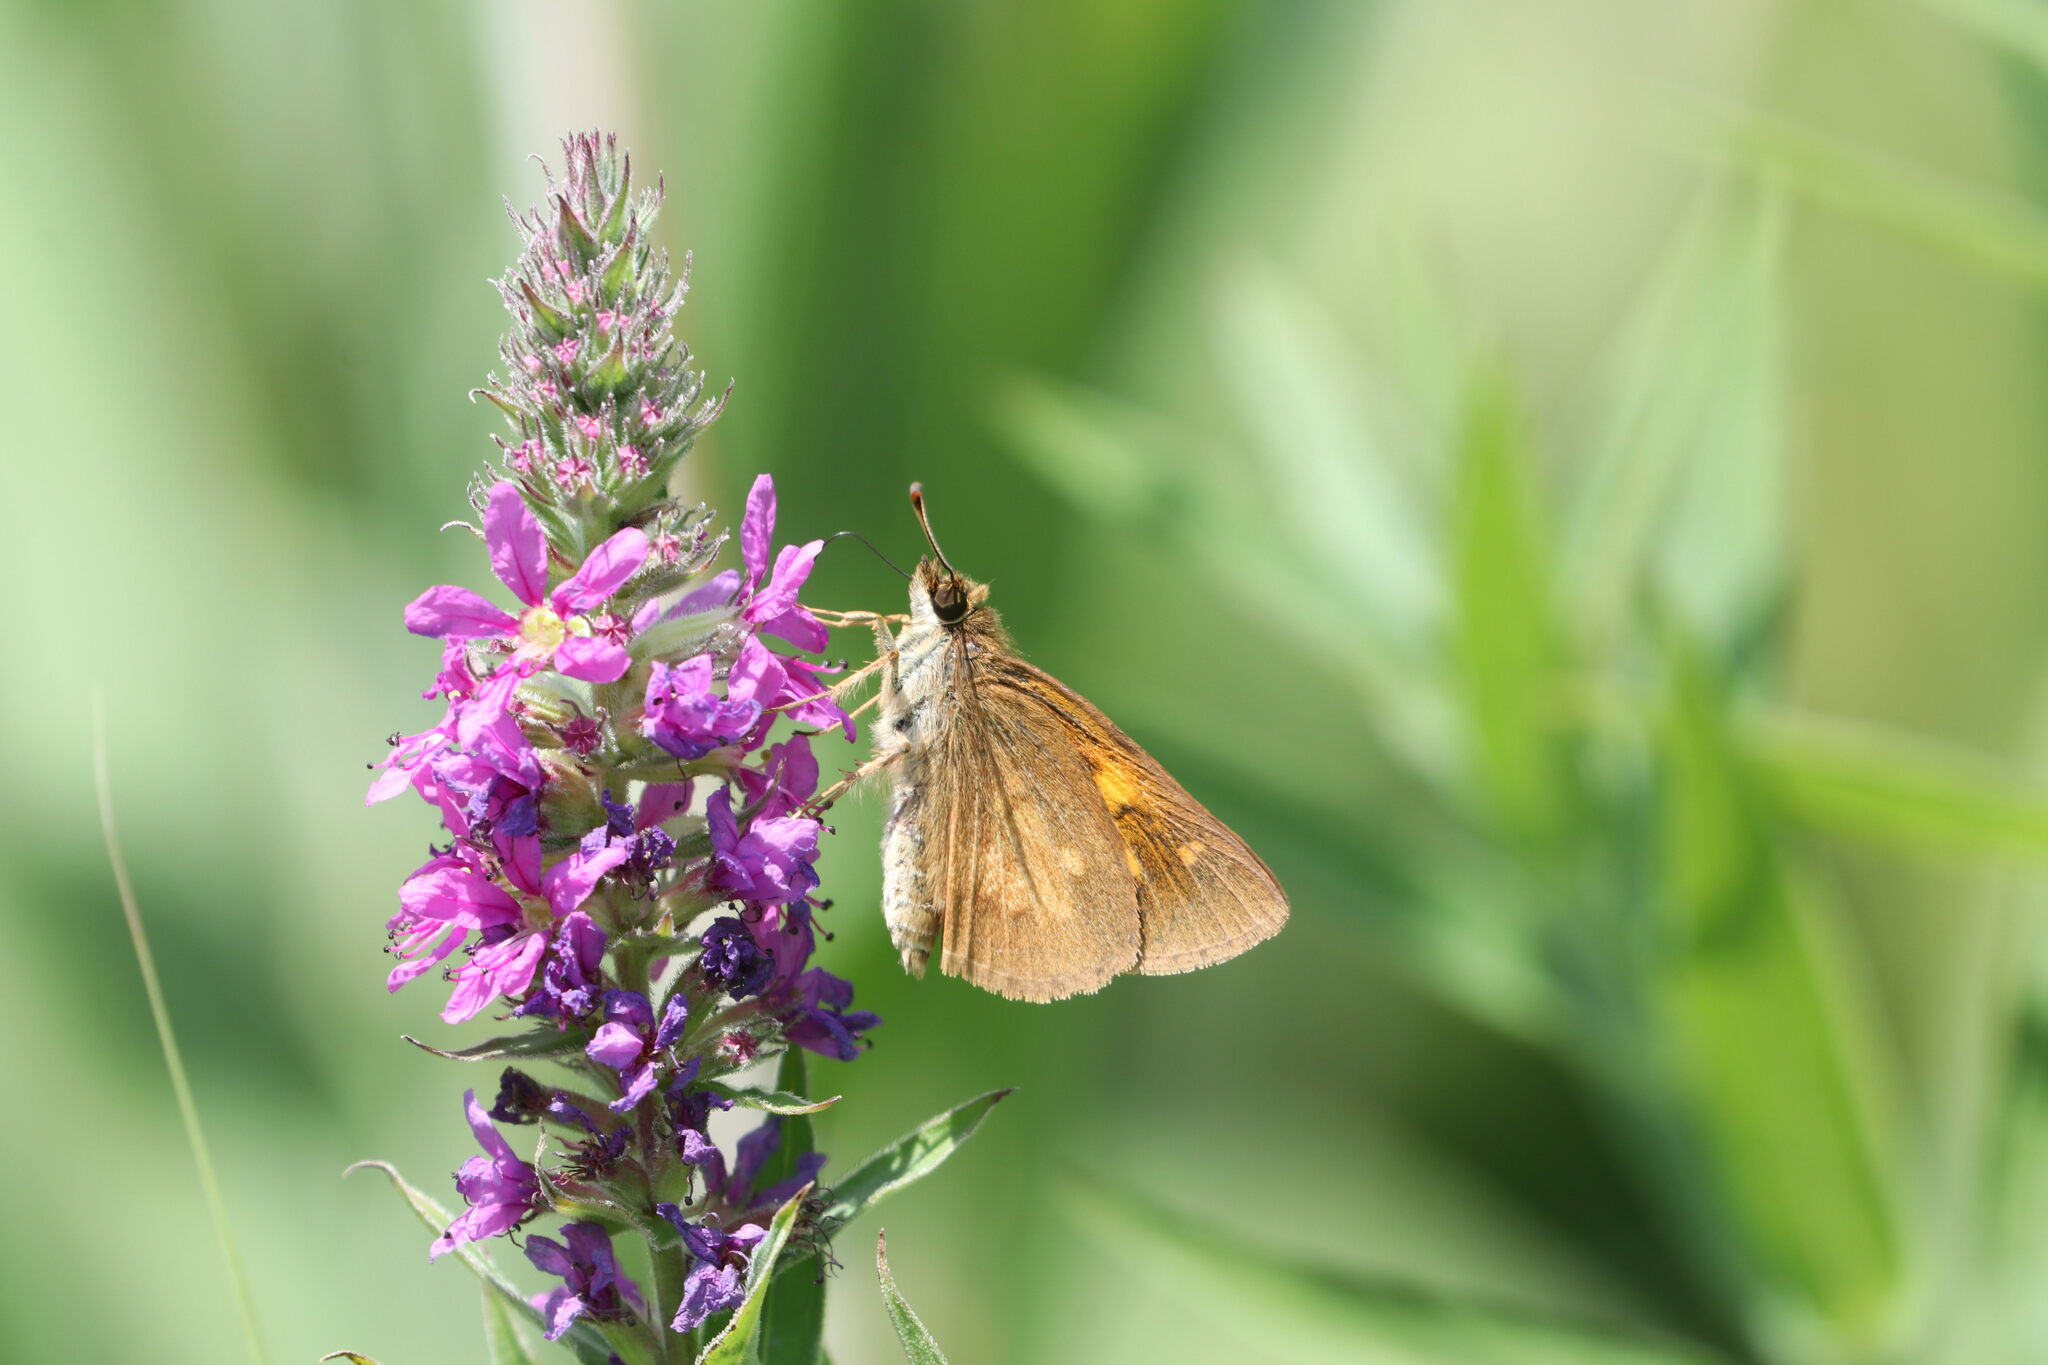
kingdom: Animalia
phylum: Arthropoda
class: Insecta
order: Lepidoptera
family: Hesperiidae
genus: Poanes
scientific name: Poanes viator
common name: Broad-winged skipper
